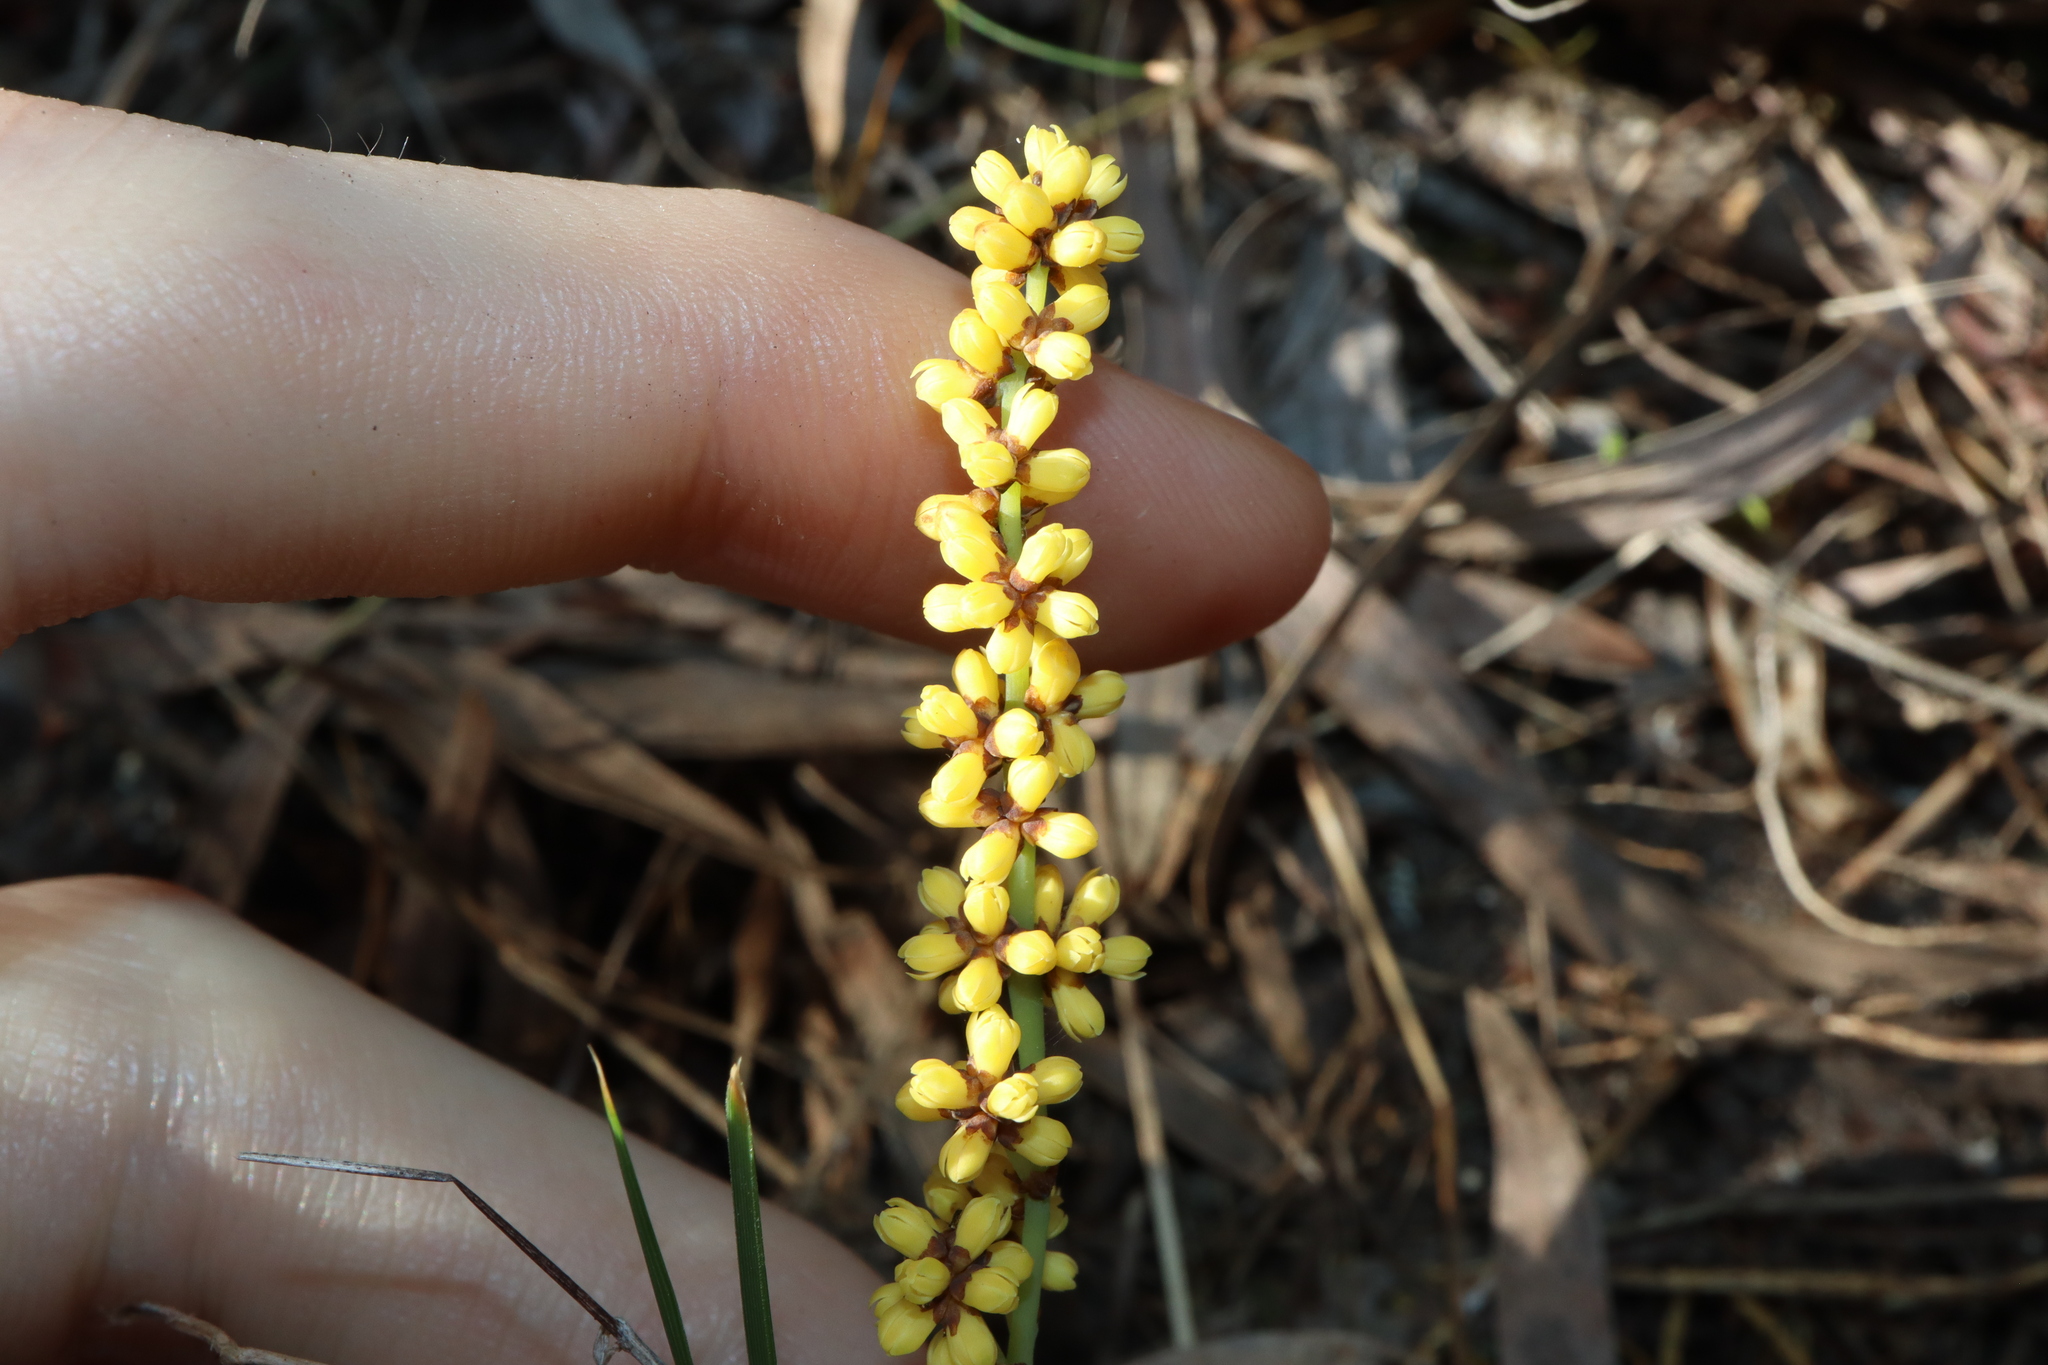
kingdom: Plantae
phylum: Tracheophyta
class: Liliopsida
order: Asparagales
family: Asparagaceae
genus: Lomandra
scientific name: Lomandra collina
